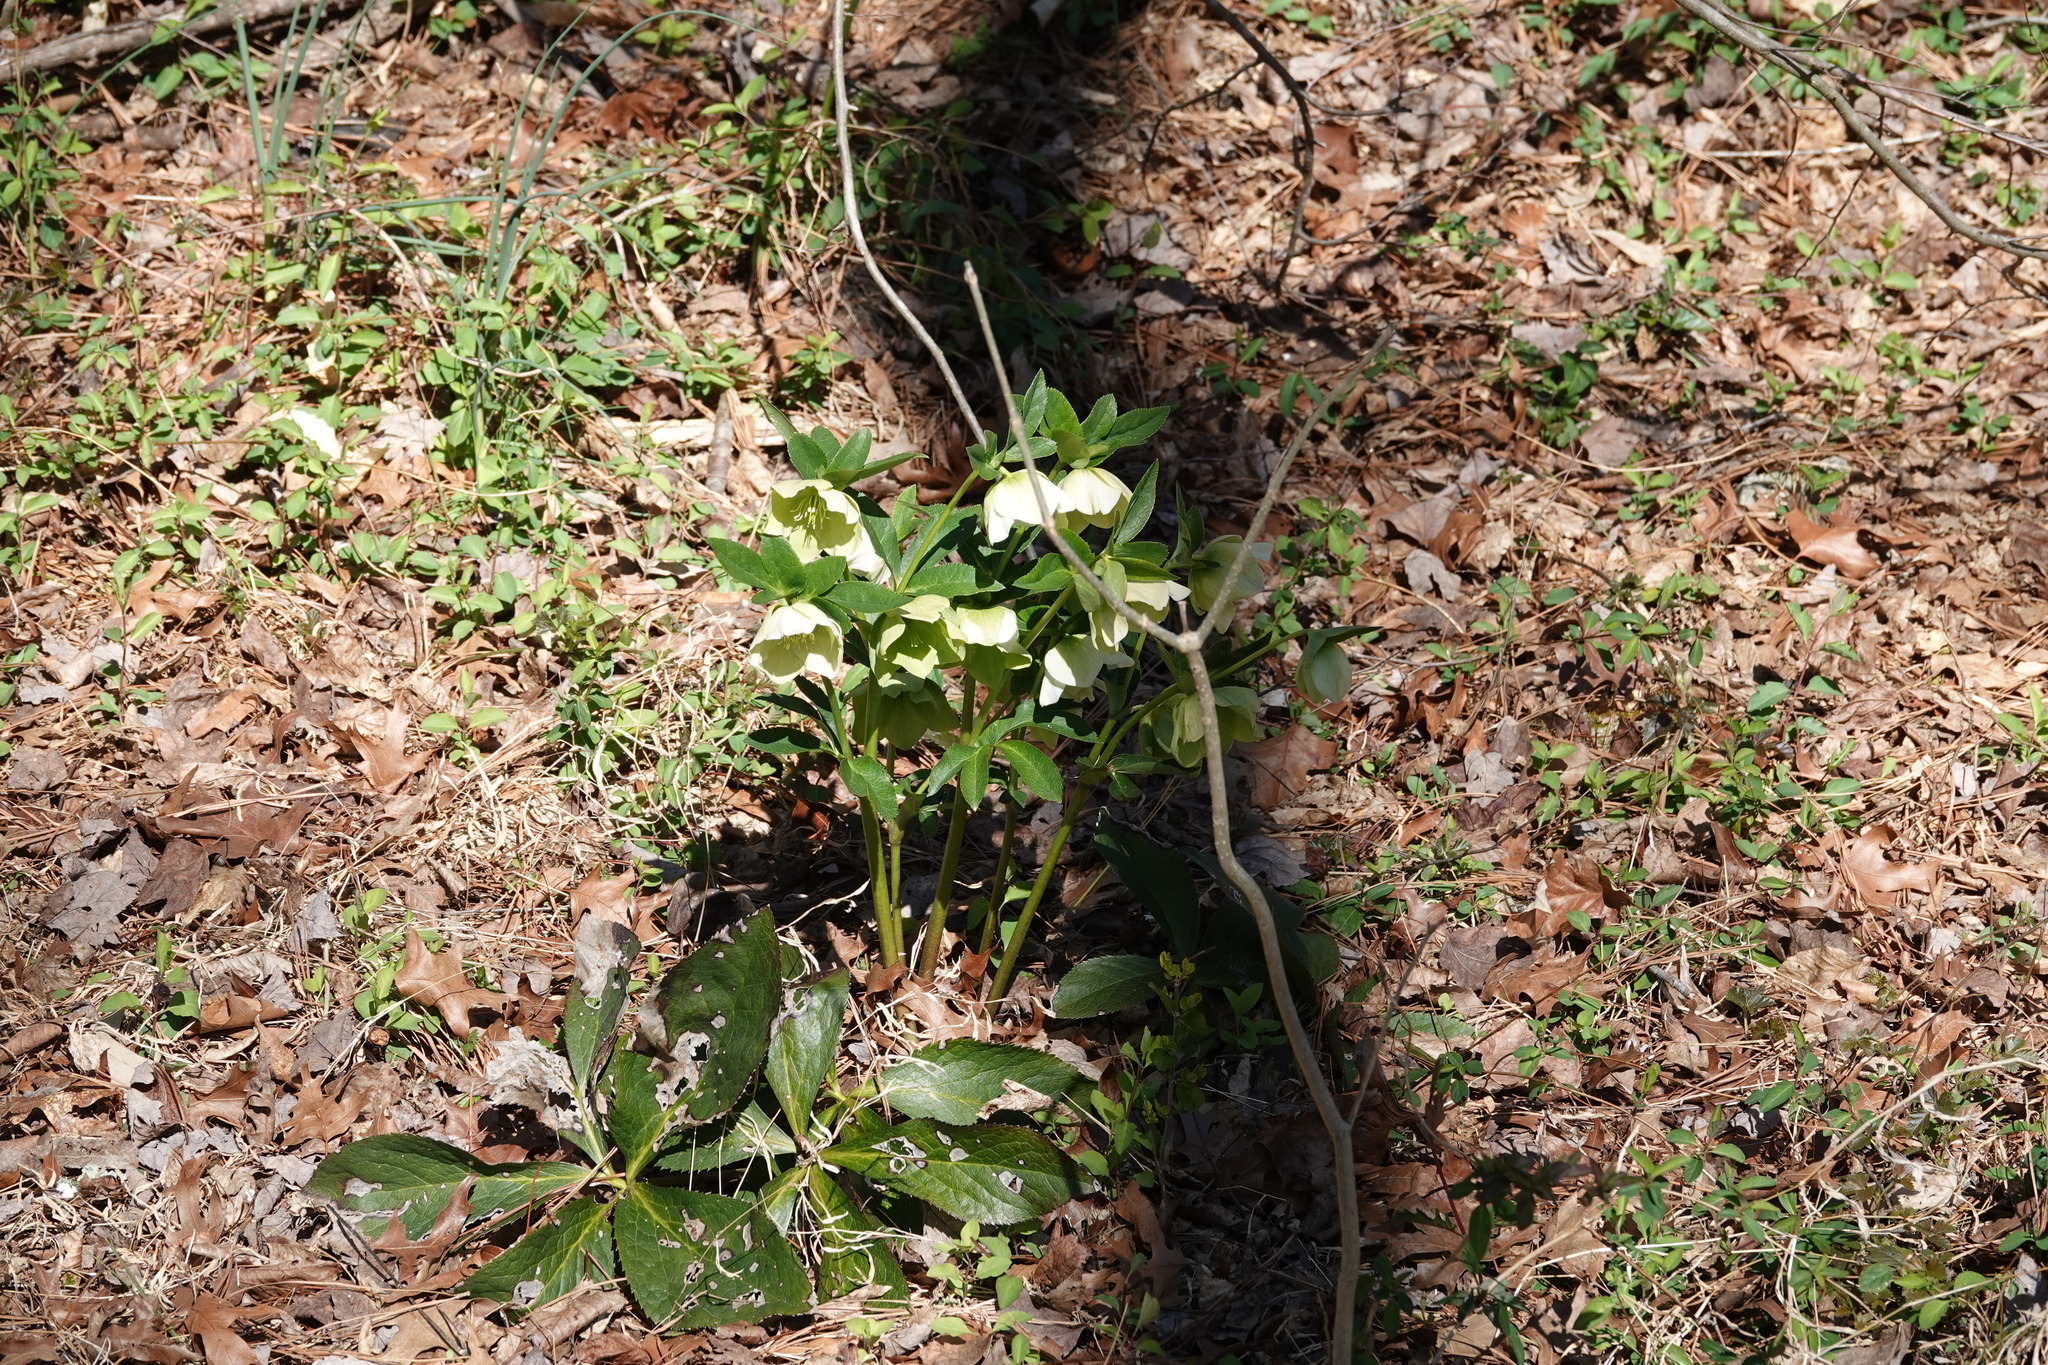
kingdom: Plantae
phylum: Tracheophyta
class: Magnoliopsida
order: Ranunculales
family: Ranunculaceae
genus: Helleborus
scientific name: Helleborus orientalis
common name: Lenten-rose
